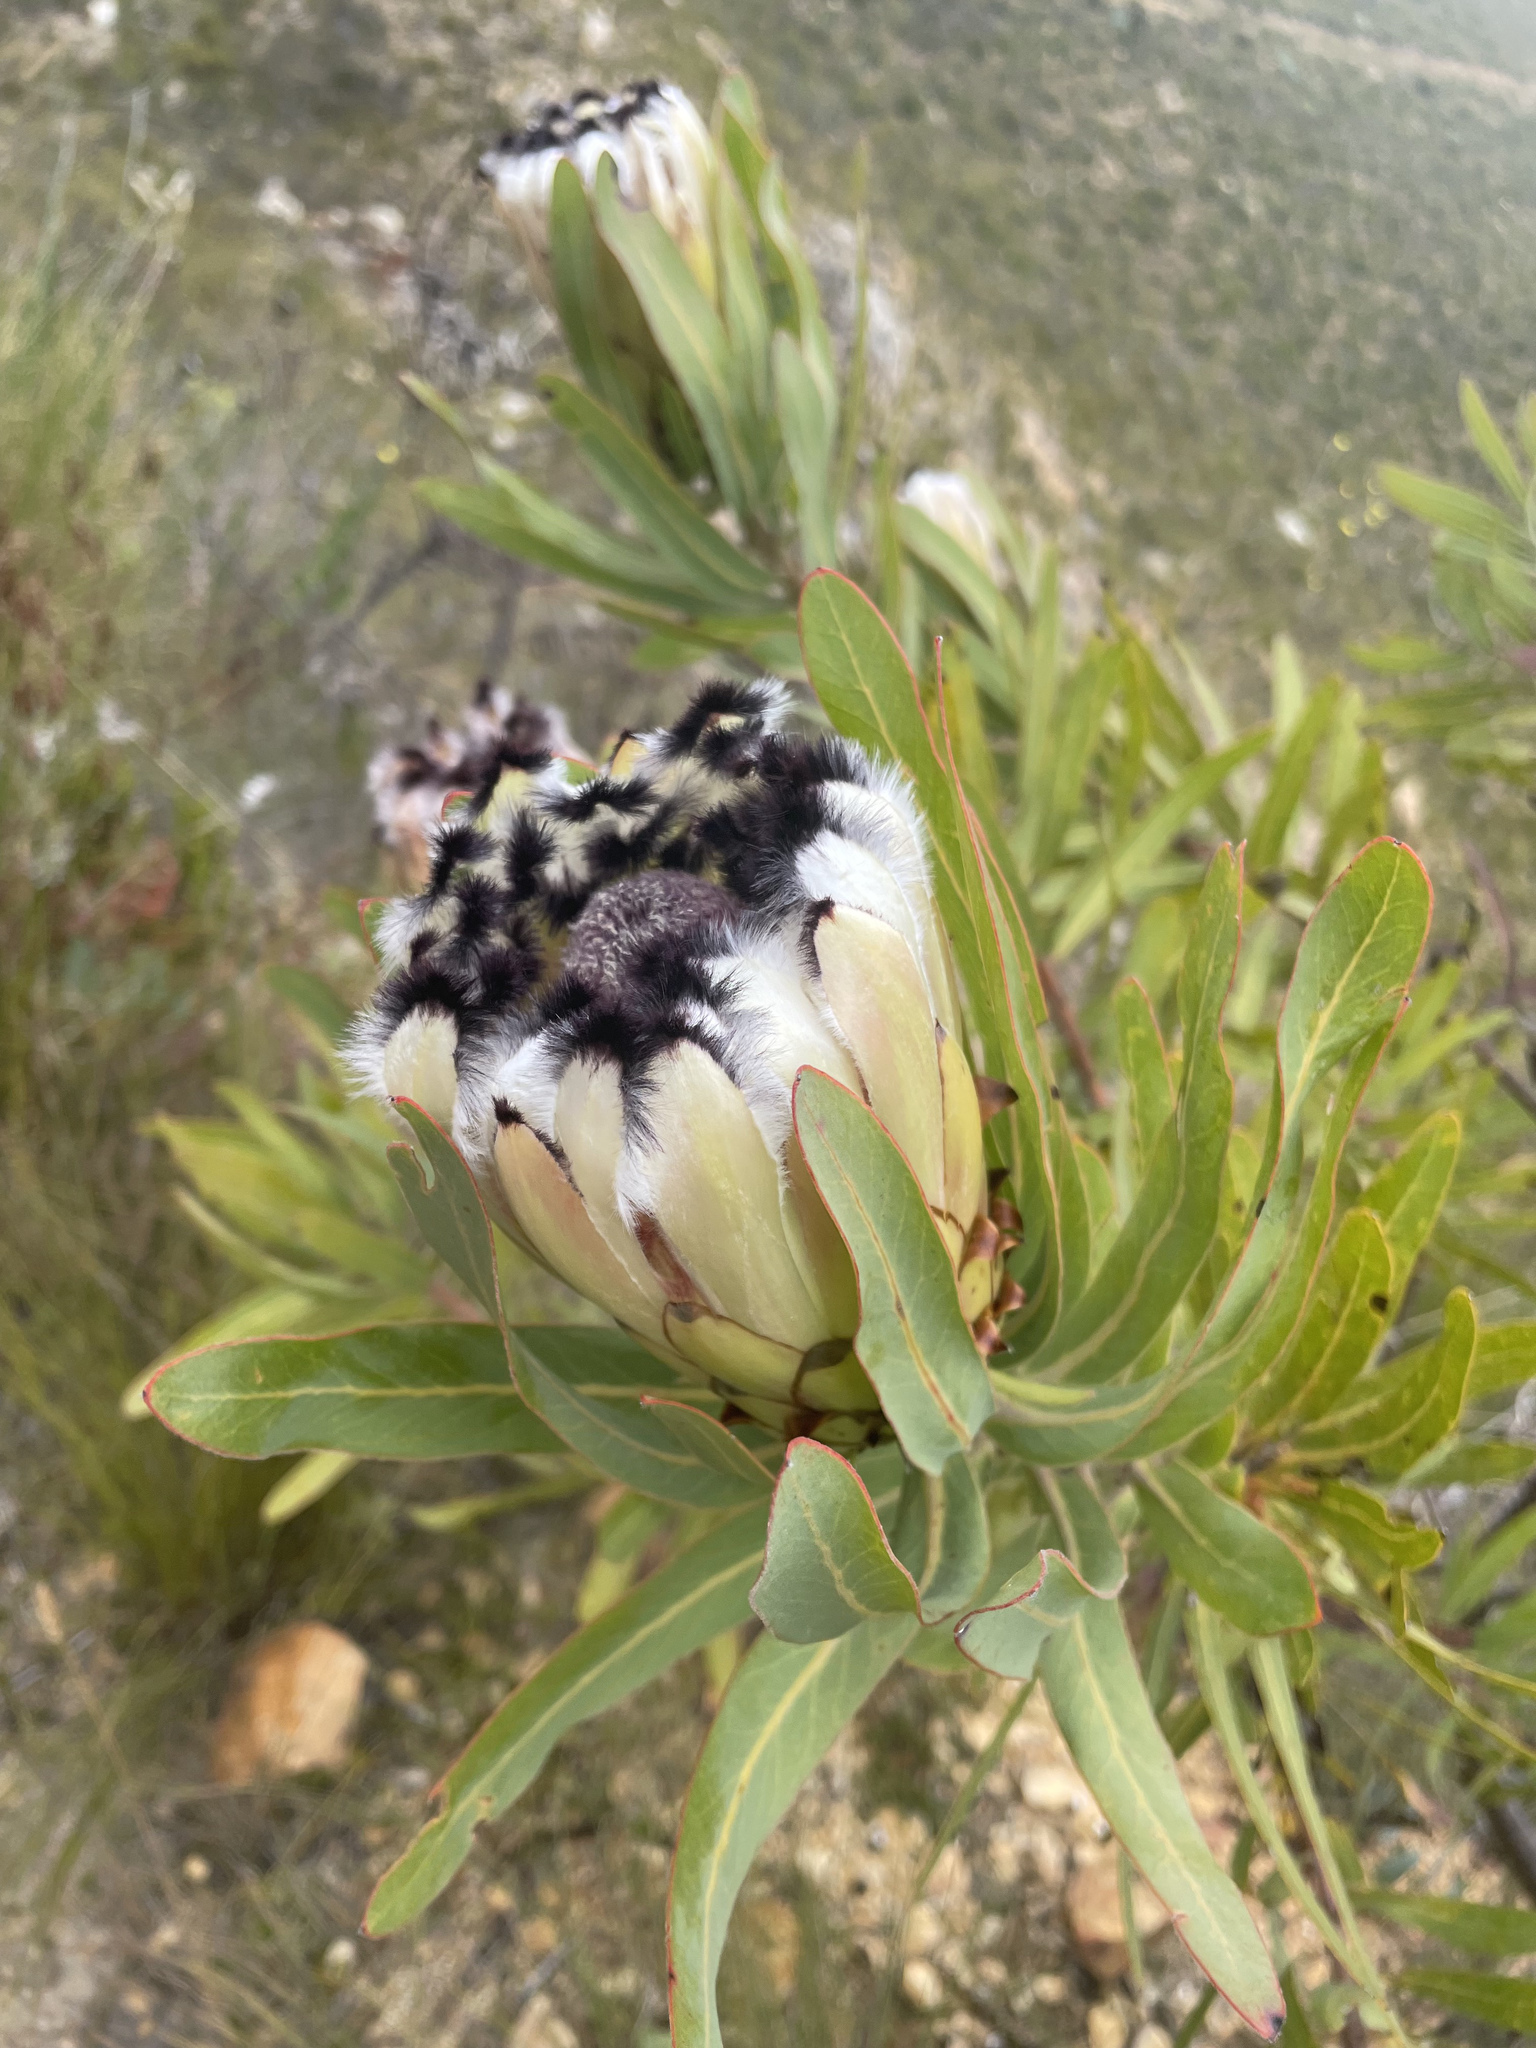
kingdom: Plantae
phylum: Tracheophyta
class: Magnoliopsida
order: Proteales
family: Proteaceae
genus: Protea
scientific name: Protea neriifolia
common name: Blue sugarbush
